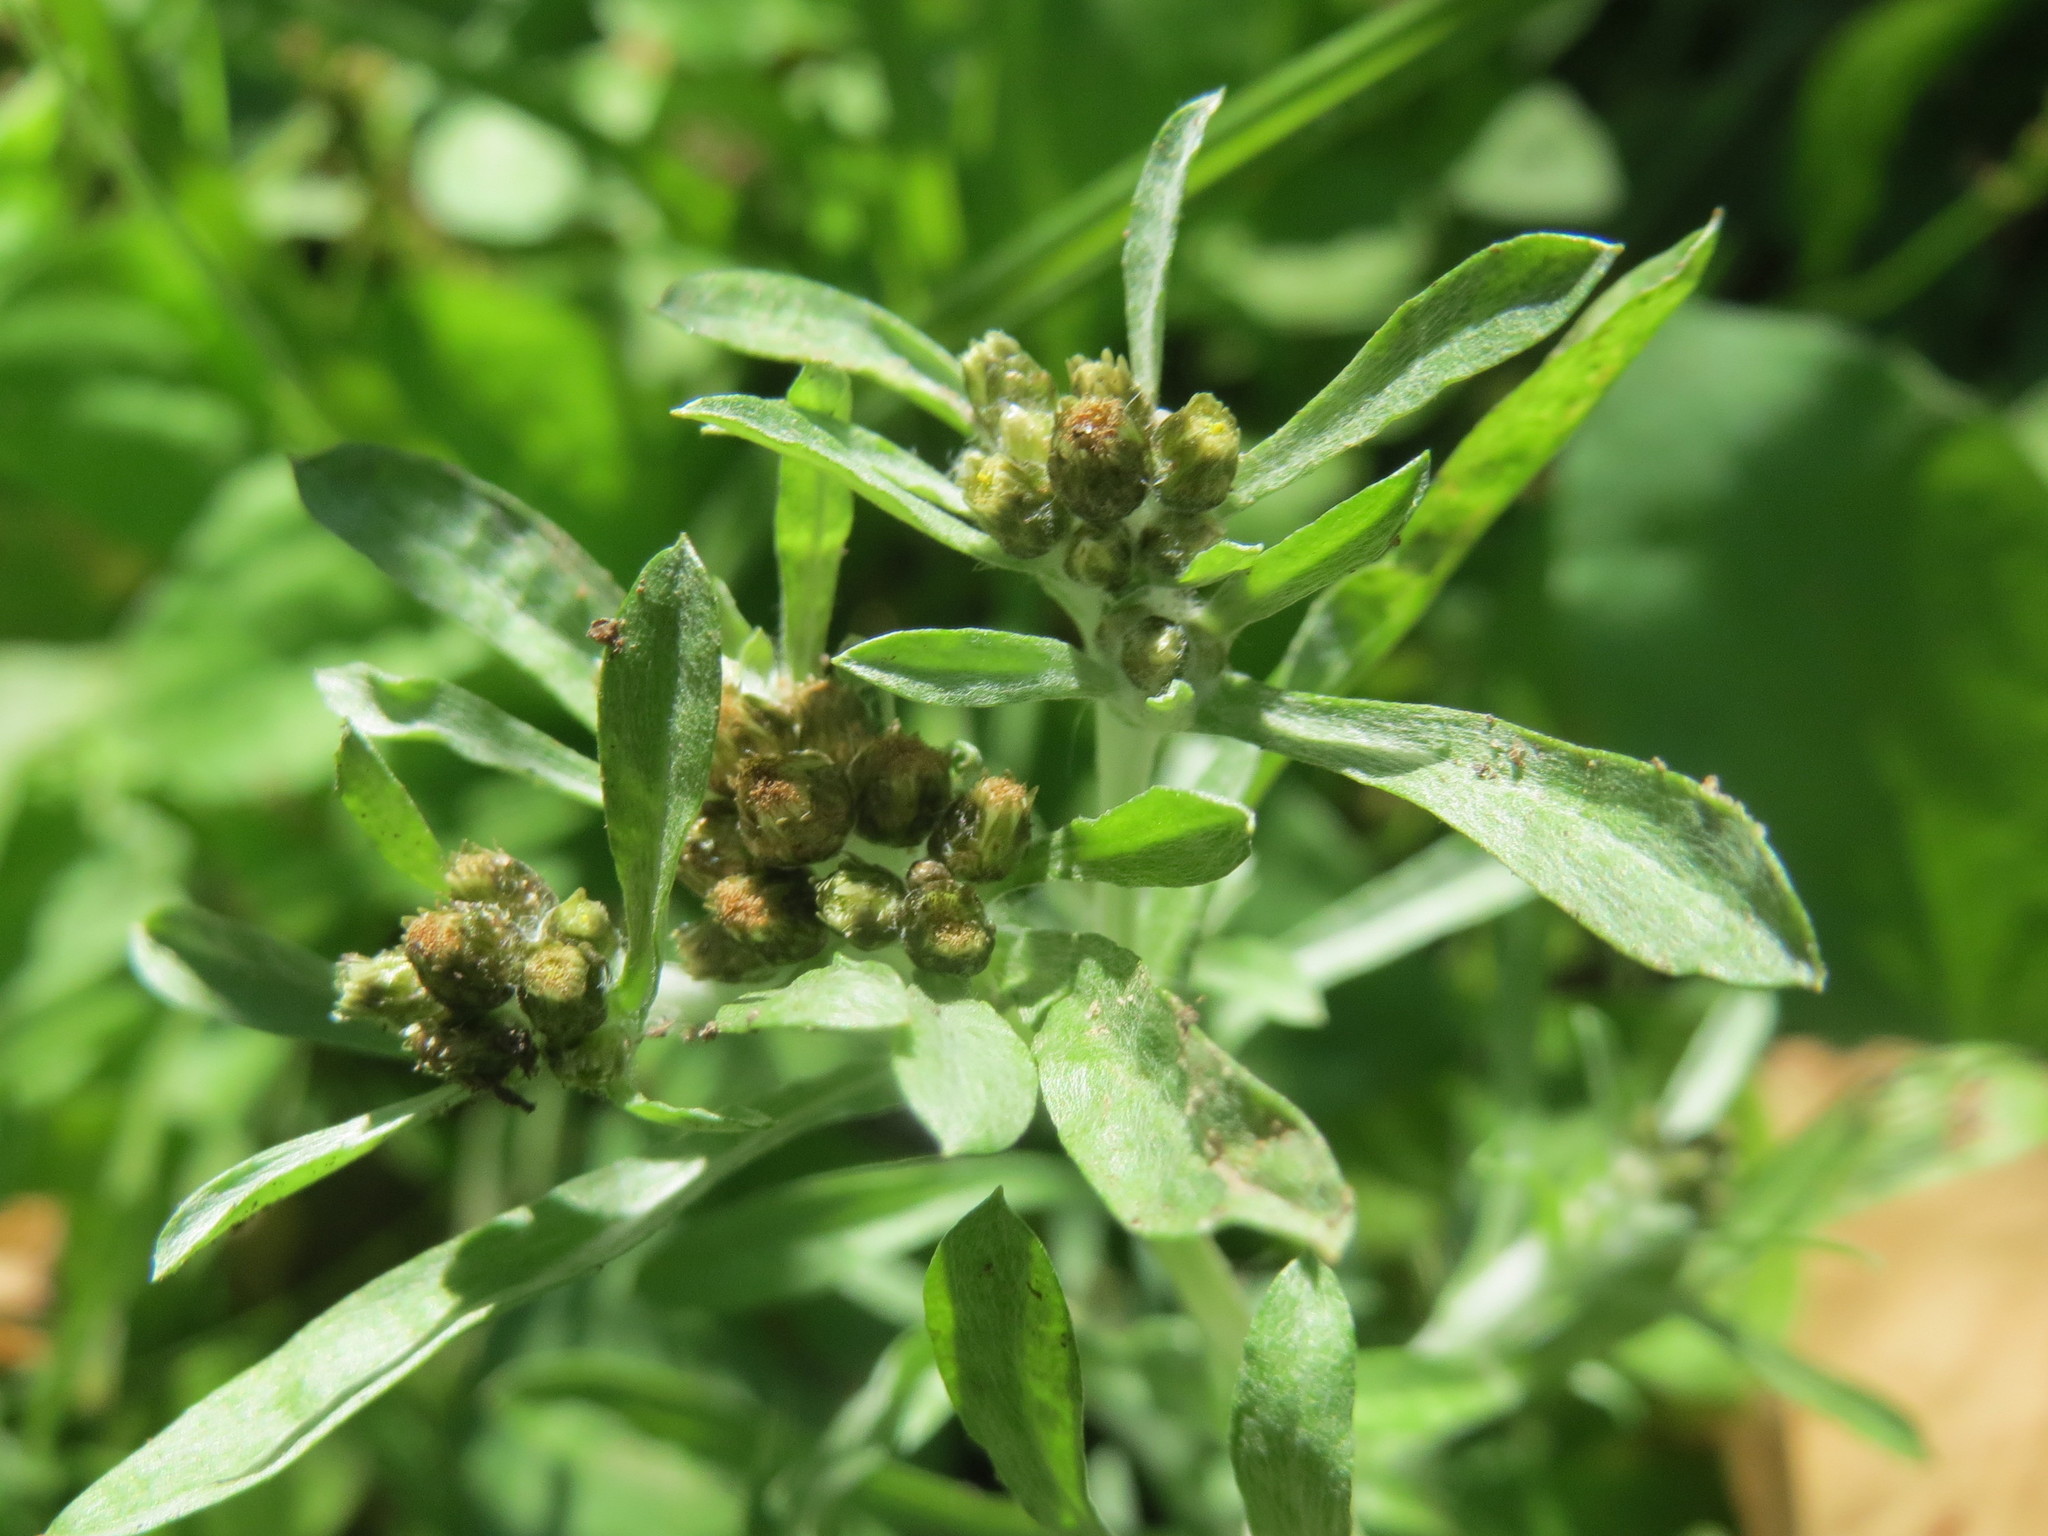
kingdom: Plantae
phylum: Tracheophyta
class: Magnoliopsida
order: Asterales
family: Asteraceae
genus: Gnaphalium
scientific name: Gnaphalium uliginosum
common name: Marsh cudweed
